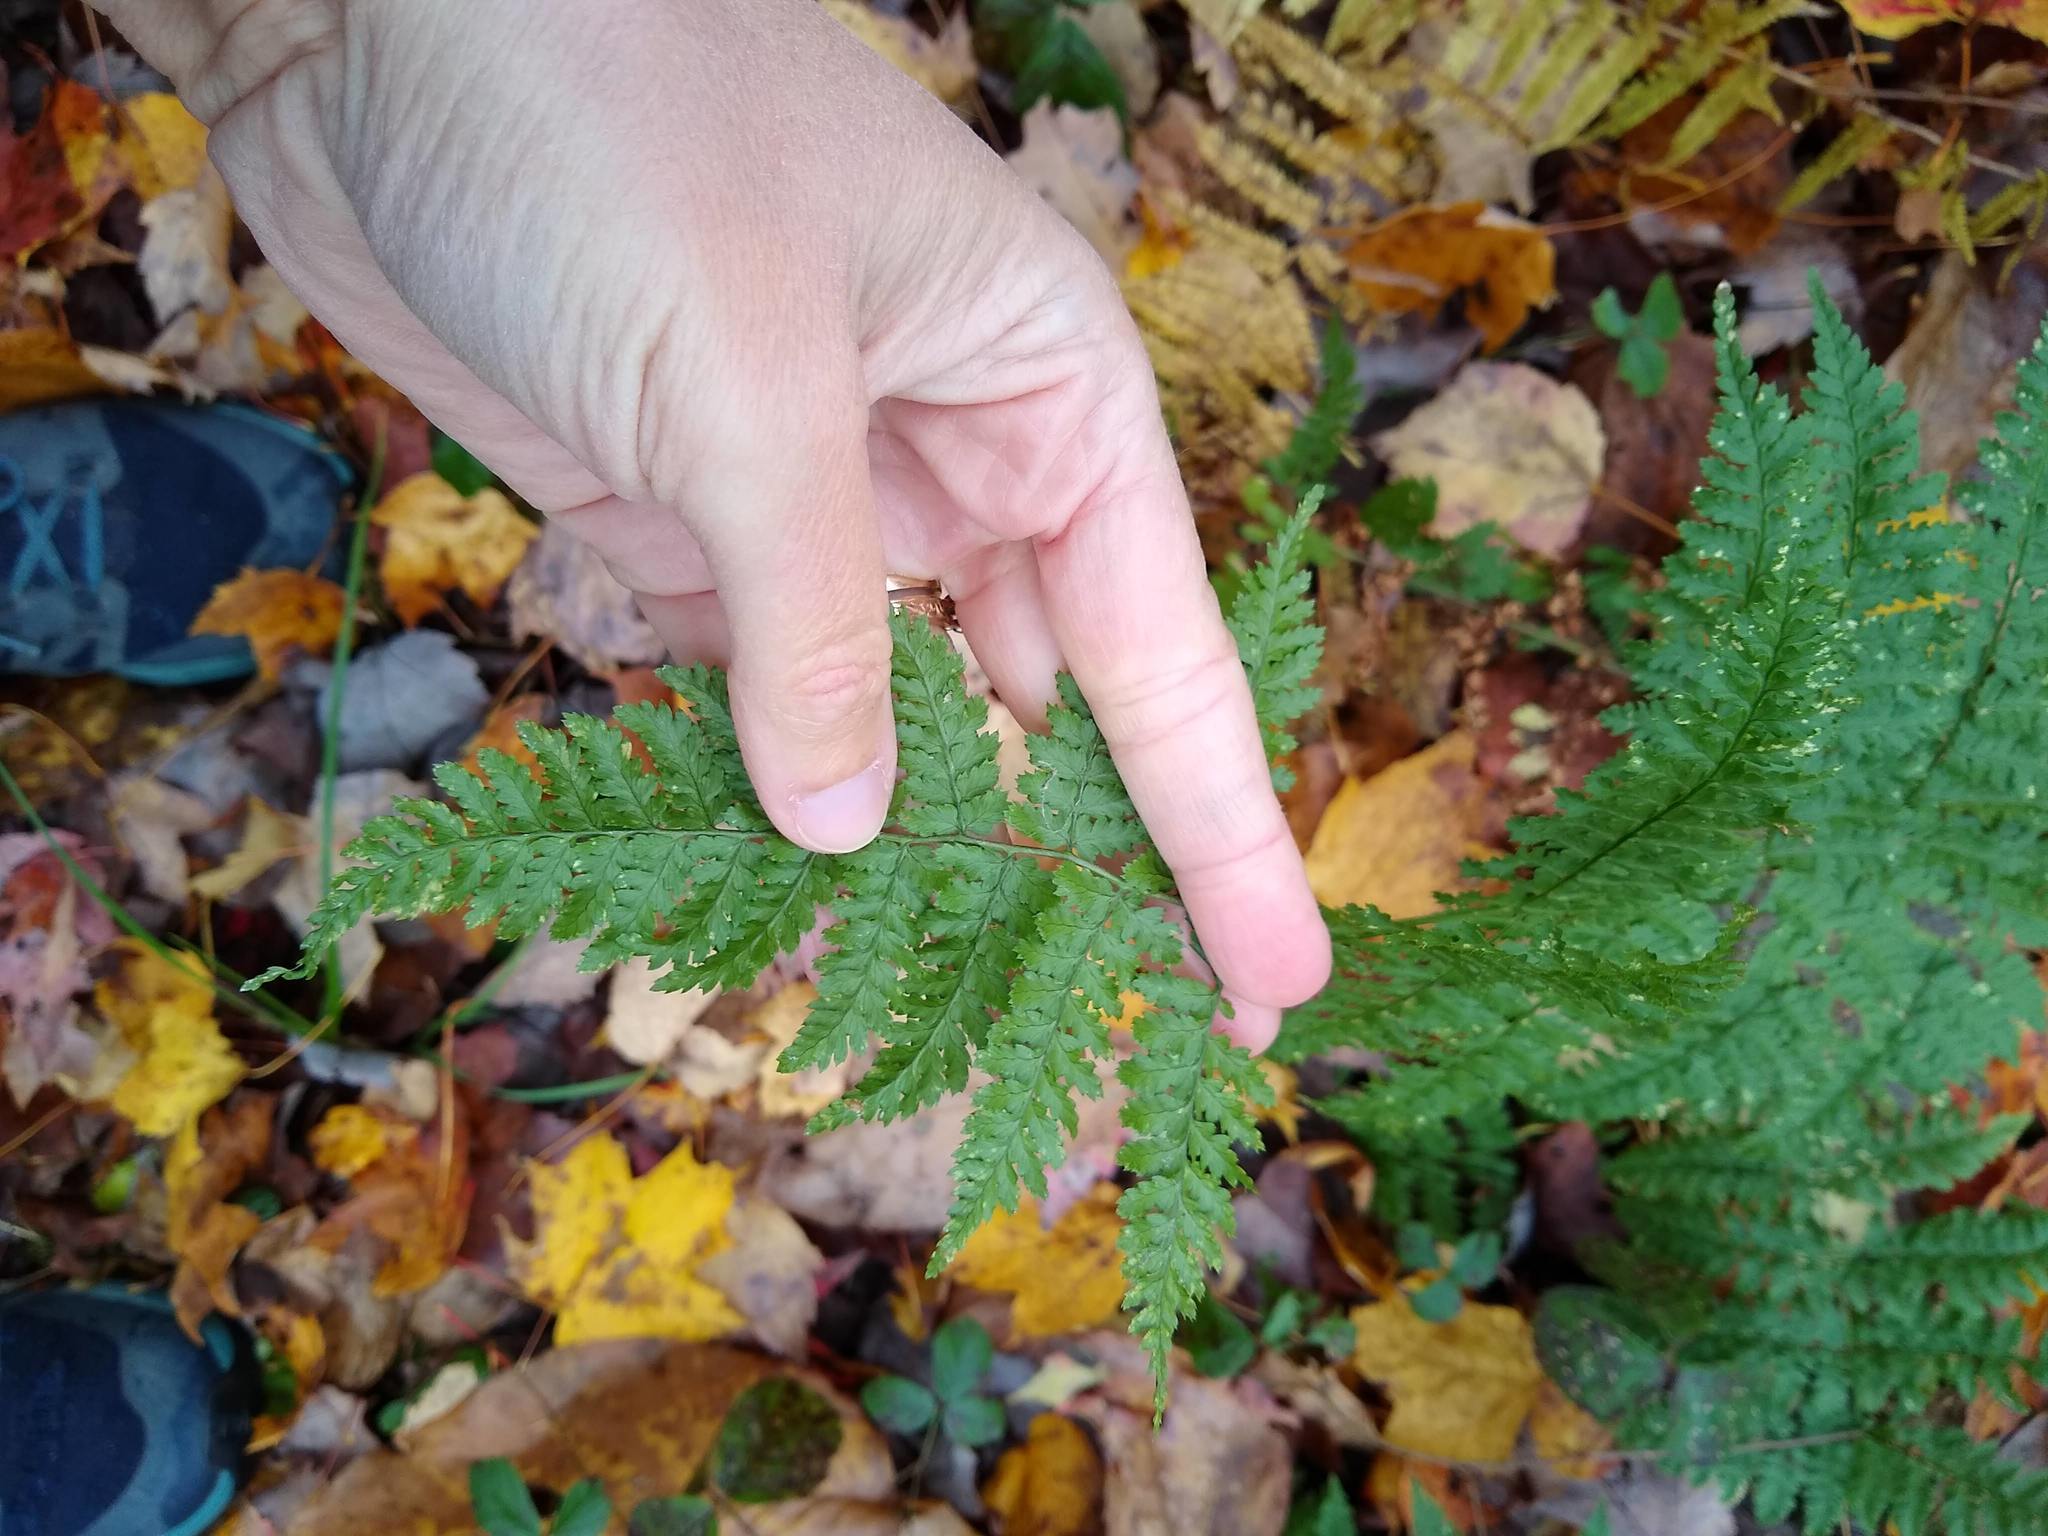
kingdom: Plantae
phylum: Tracheophyta
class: Polypodiopsida
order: Polypodiales
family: Dryopteridaceae
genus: Dryopteris
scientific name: Dryopteris intermedia
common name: Evergreen wood fern
